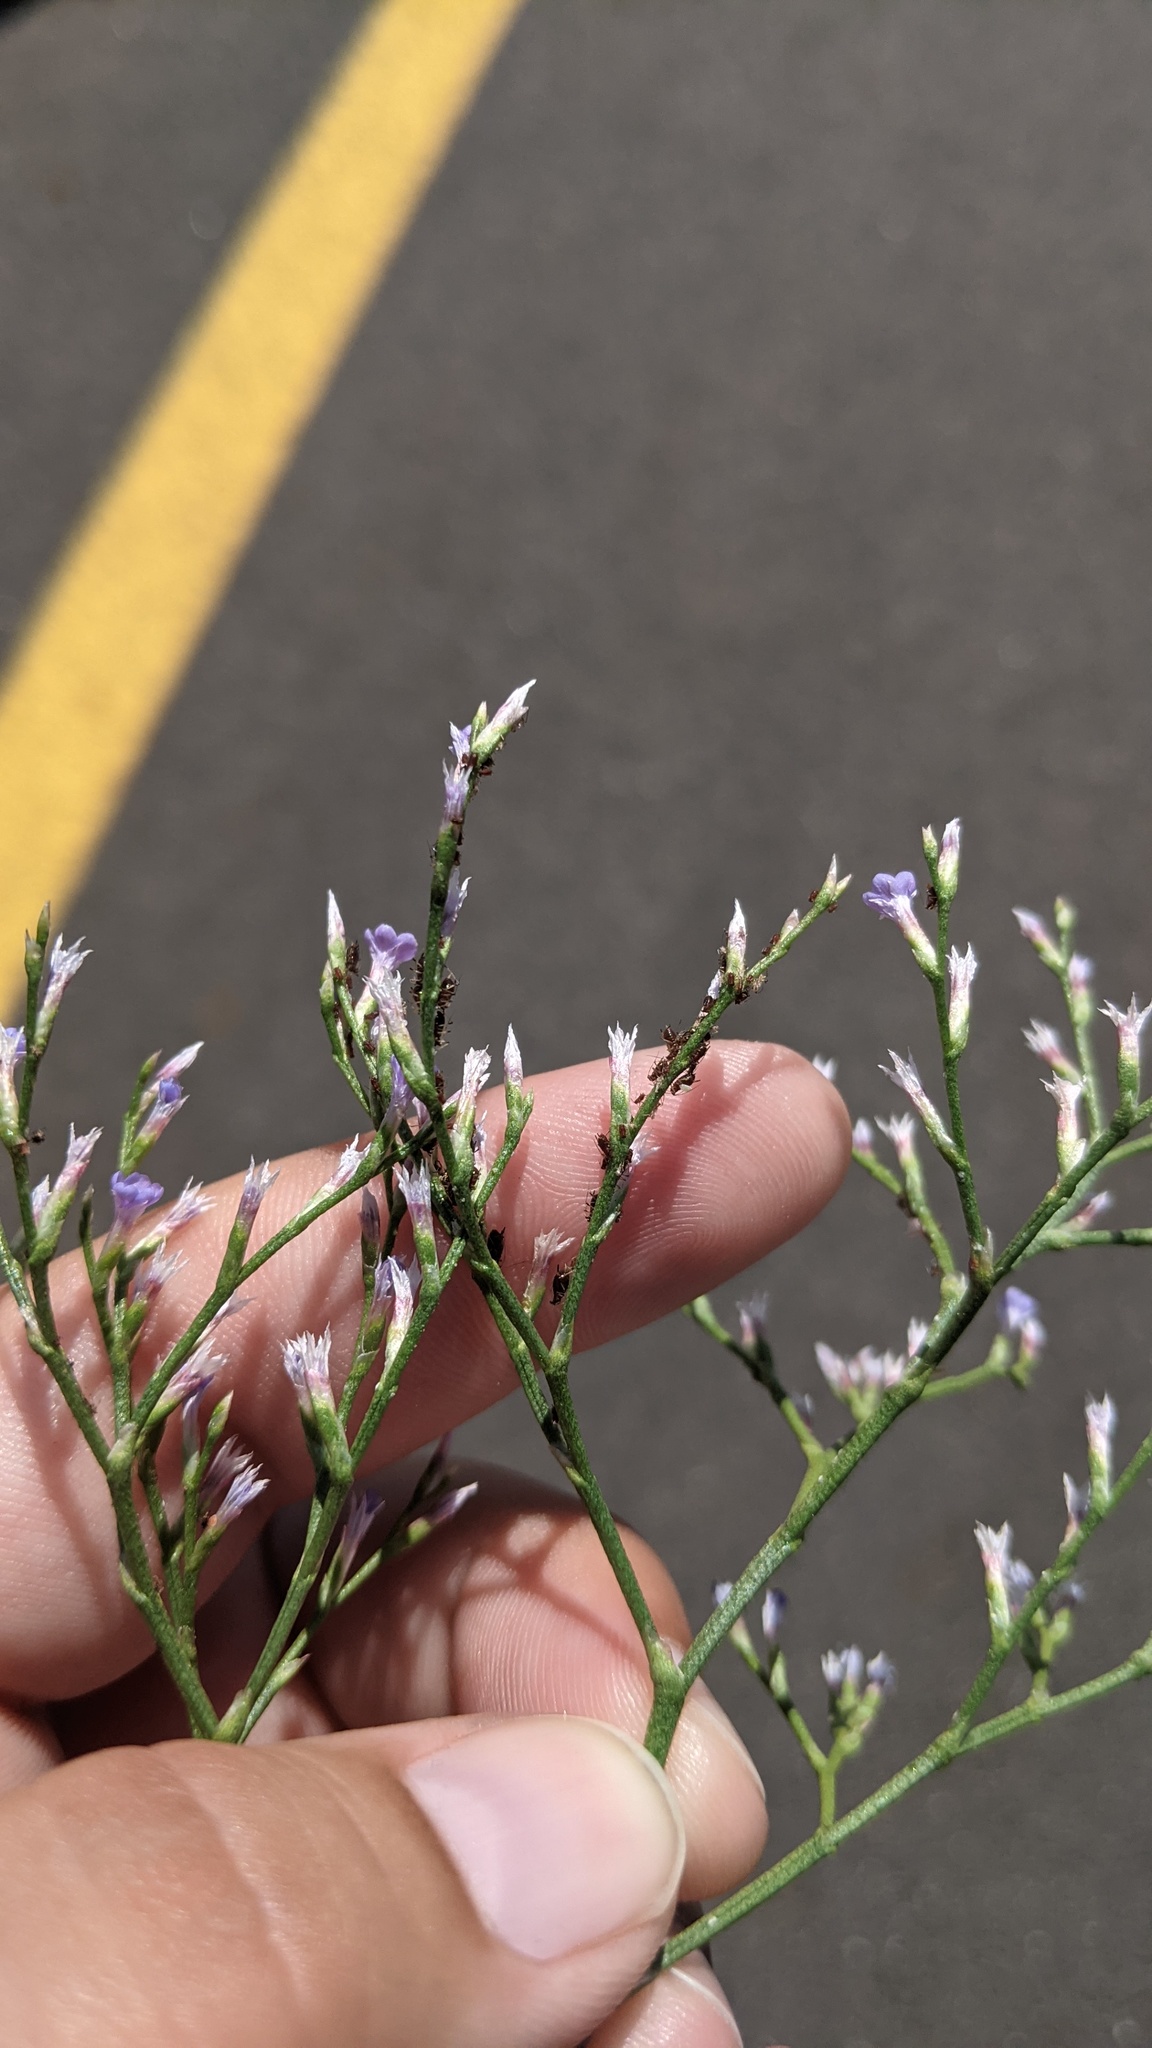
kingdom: Plantae
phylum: Tracheophyta
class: Magnoliopsida
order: Caryophyllales
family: Plumbaginaceae
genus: Limonium
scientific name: Limonium carolinianum
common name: Carolina sea lavender
